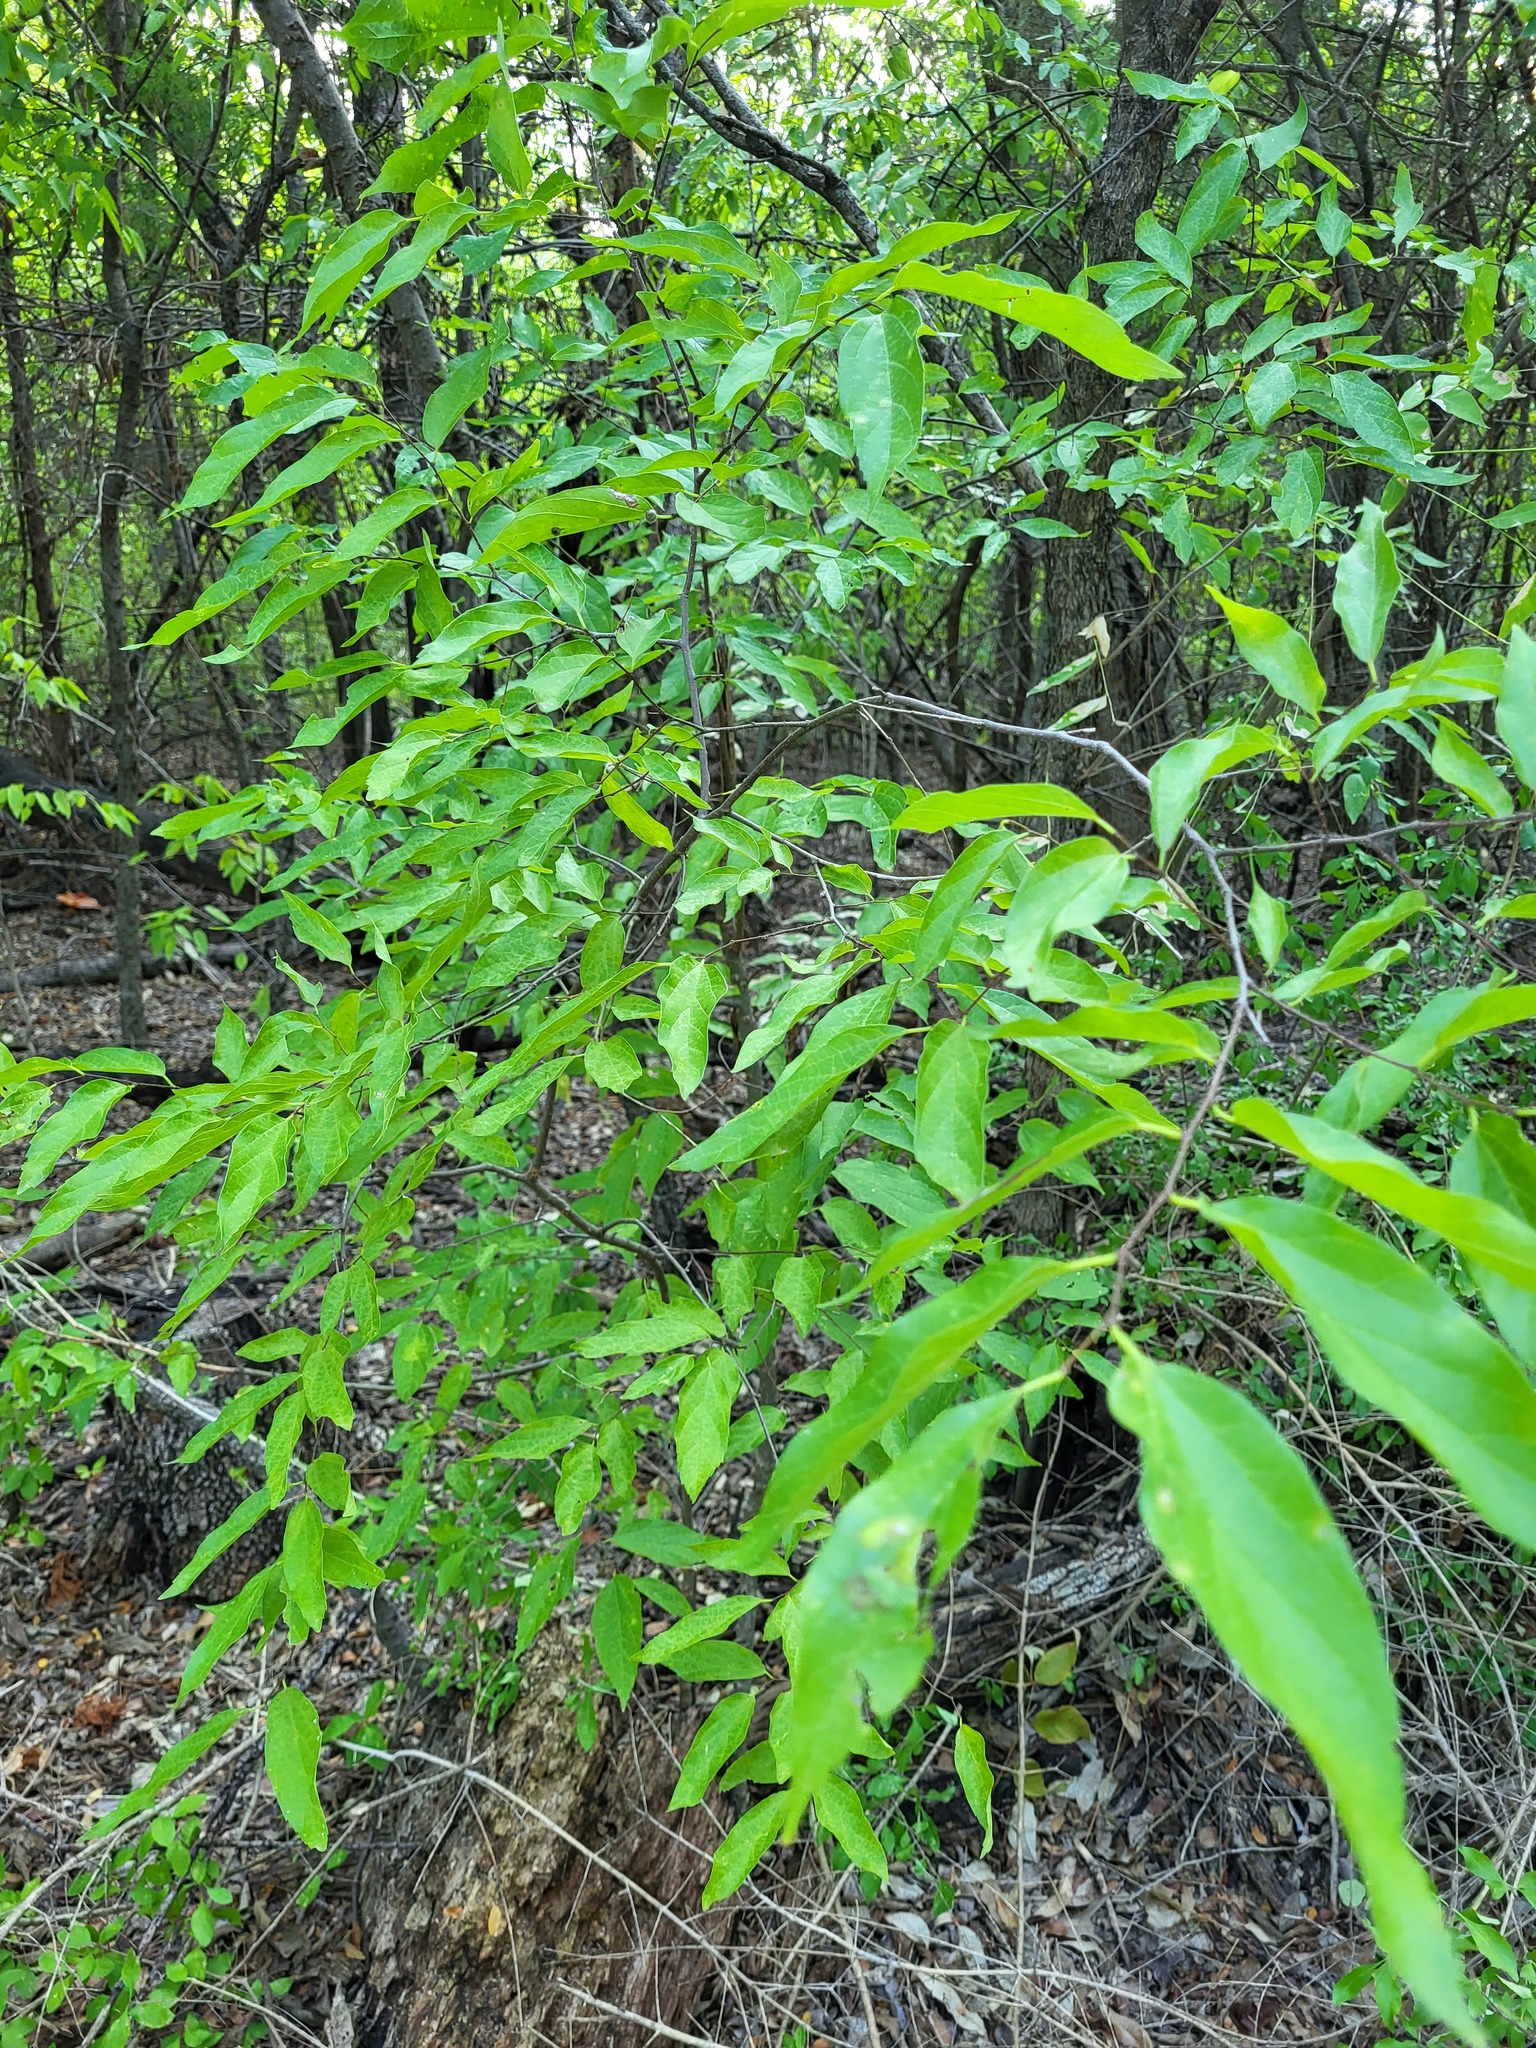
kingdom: Plantae
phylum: Tracheophyta
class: Magnoliopsida
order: Sapindales
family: Sapindaceae
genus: Sapindus
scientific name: Sapindus drummondii
